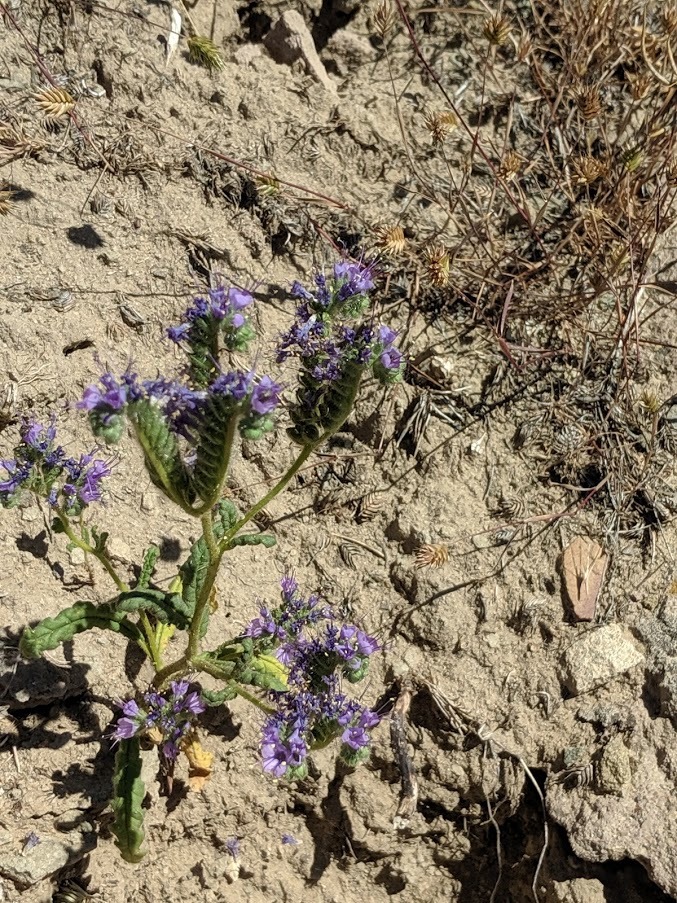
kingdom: Plantae
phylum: Tracheophyta
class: Magnoliopsida
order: Boraginales
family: Hydrophyllaceae
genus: Phacelia
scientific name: Phacelia crenulata
